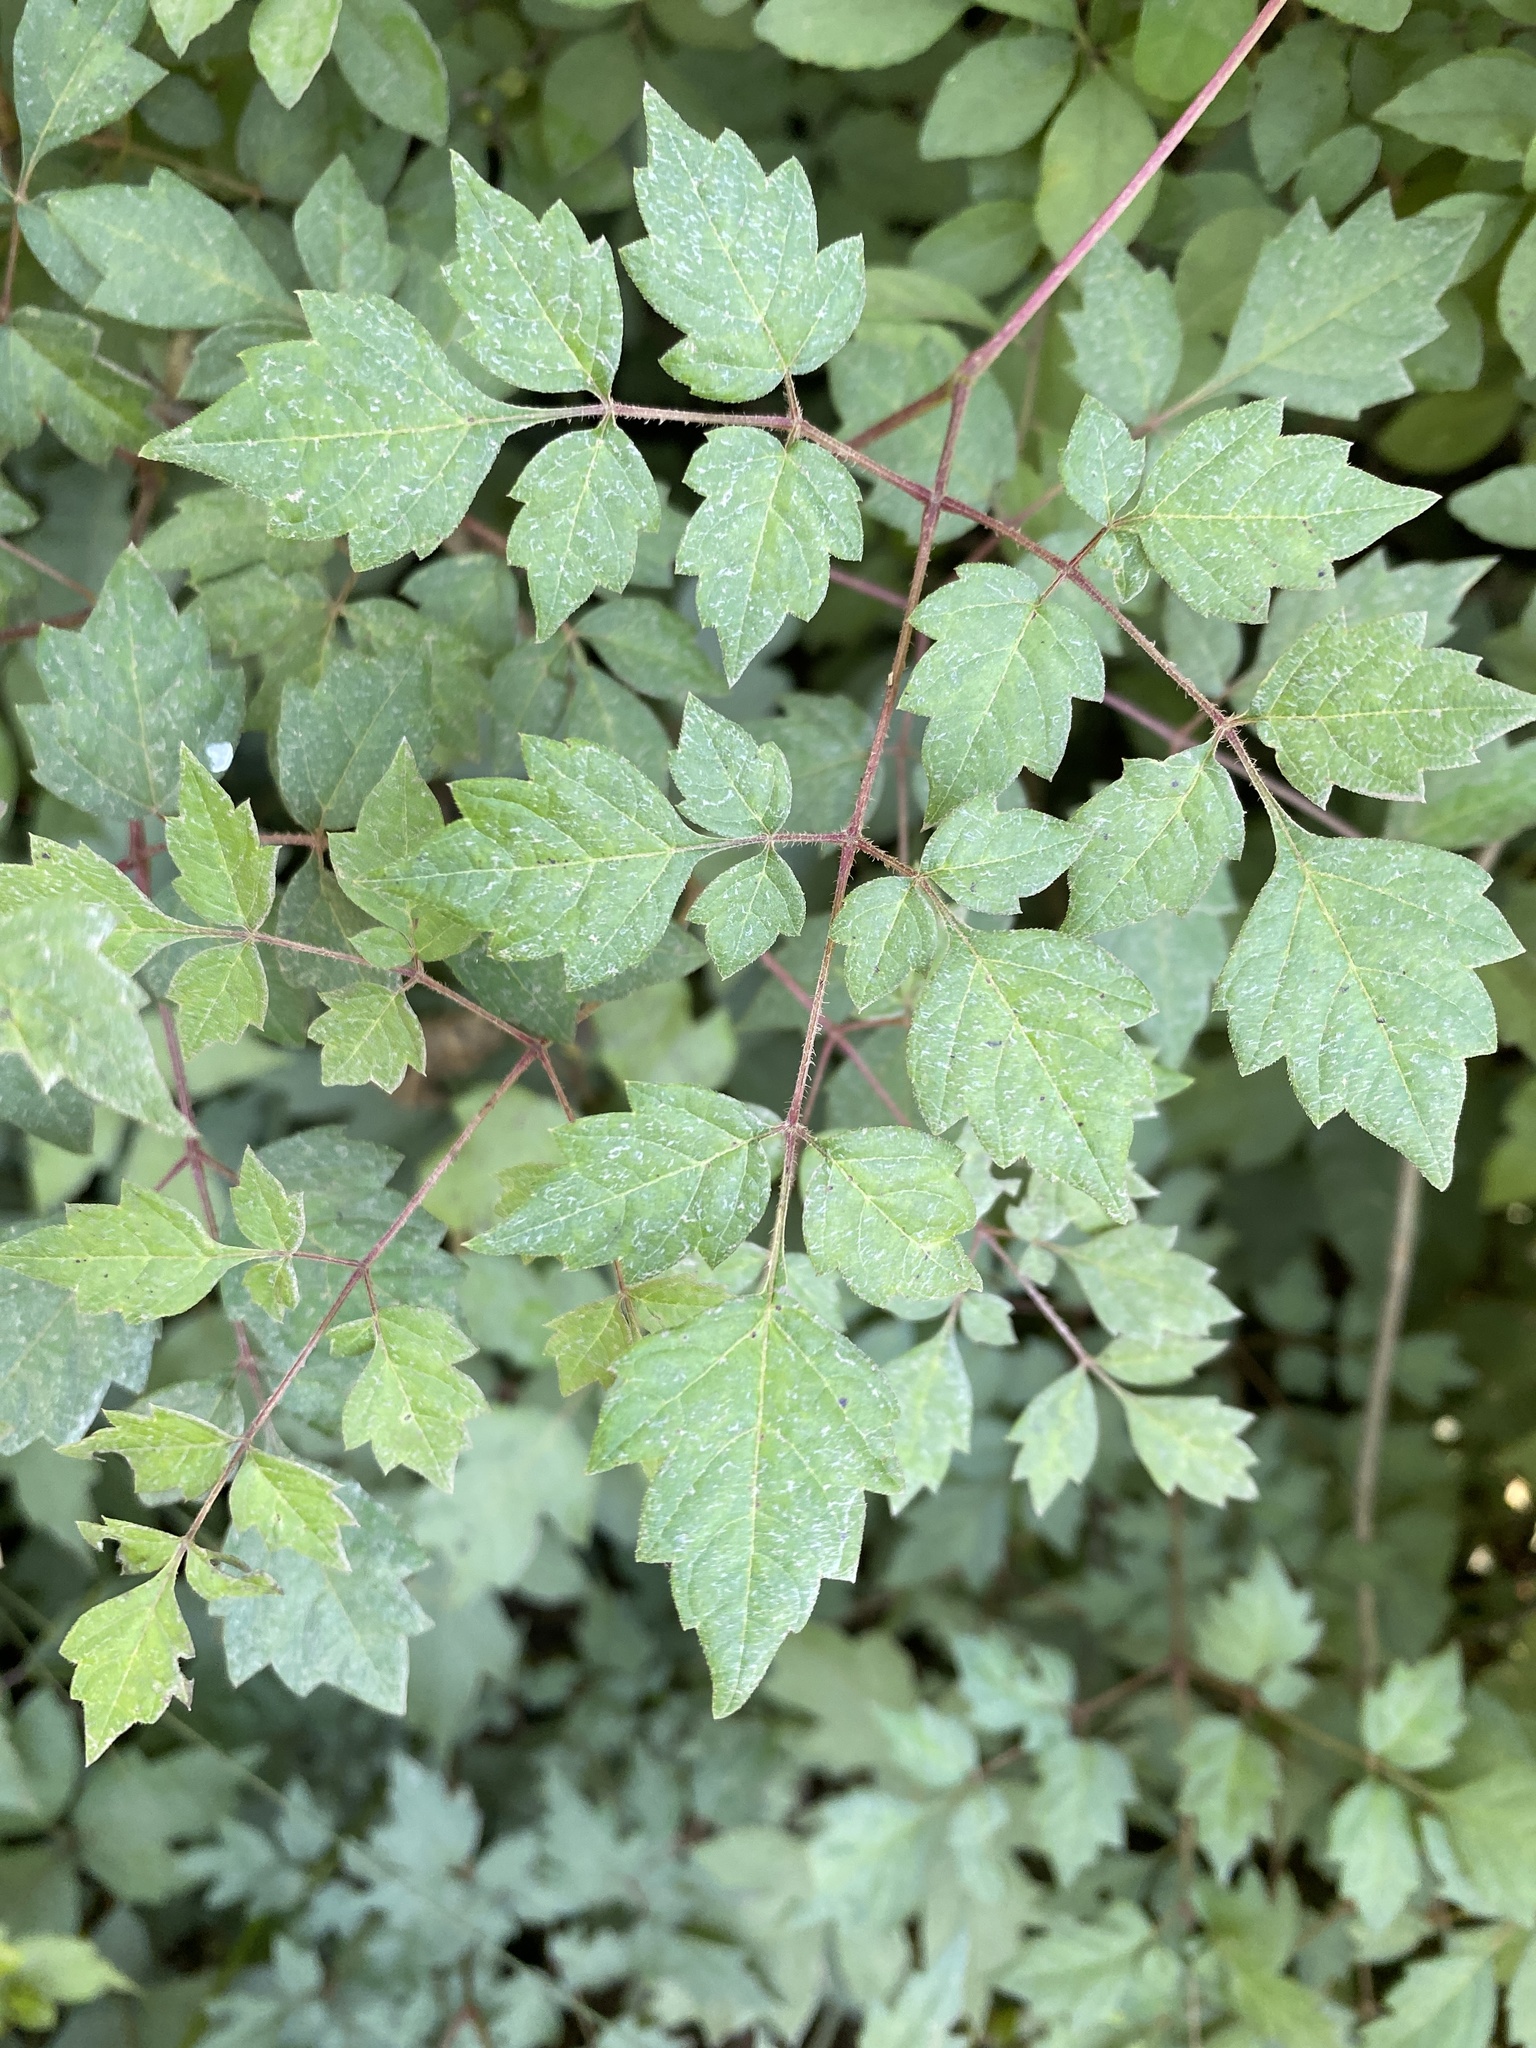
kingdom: Plantae
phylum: Tracheophyta
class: Magnoliopsida
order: Vitales
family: Vitaceae
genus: Nekemias
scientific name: Nekemias arborea
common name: Peppervine
